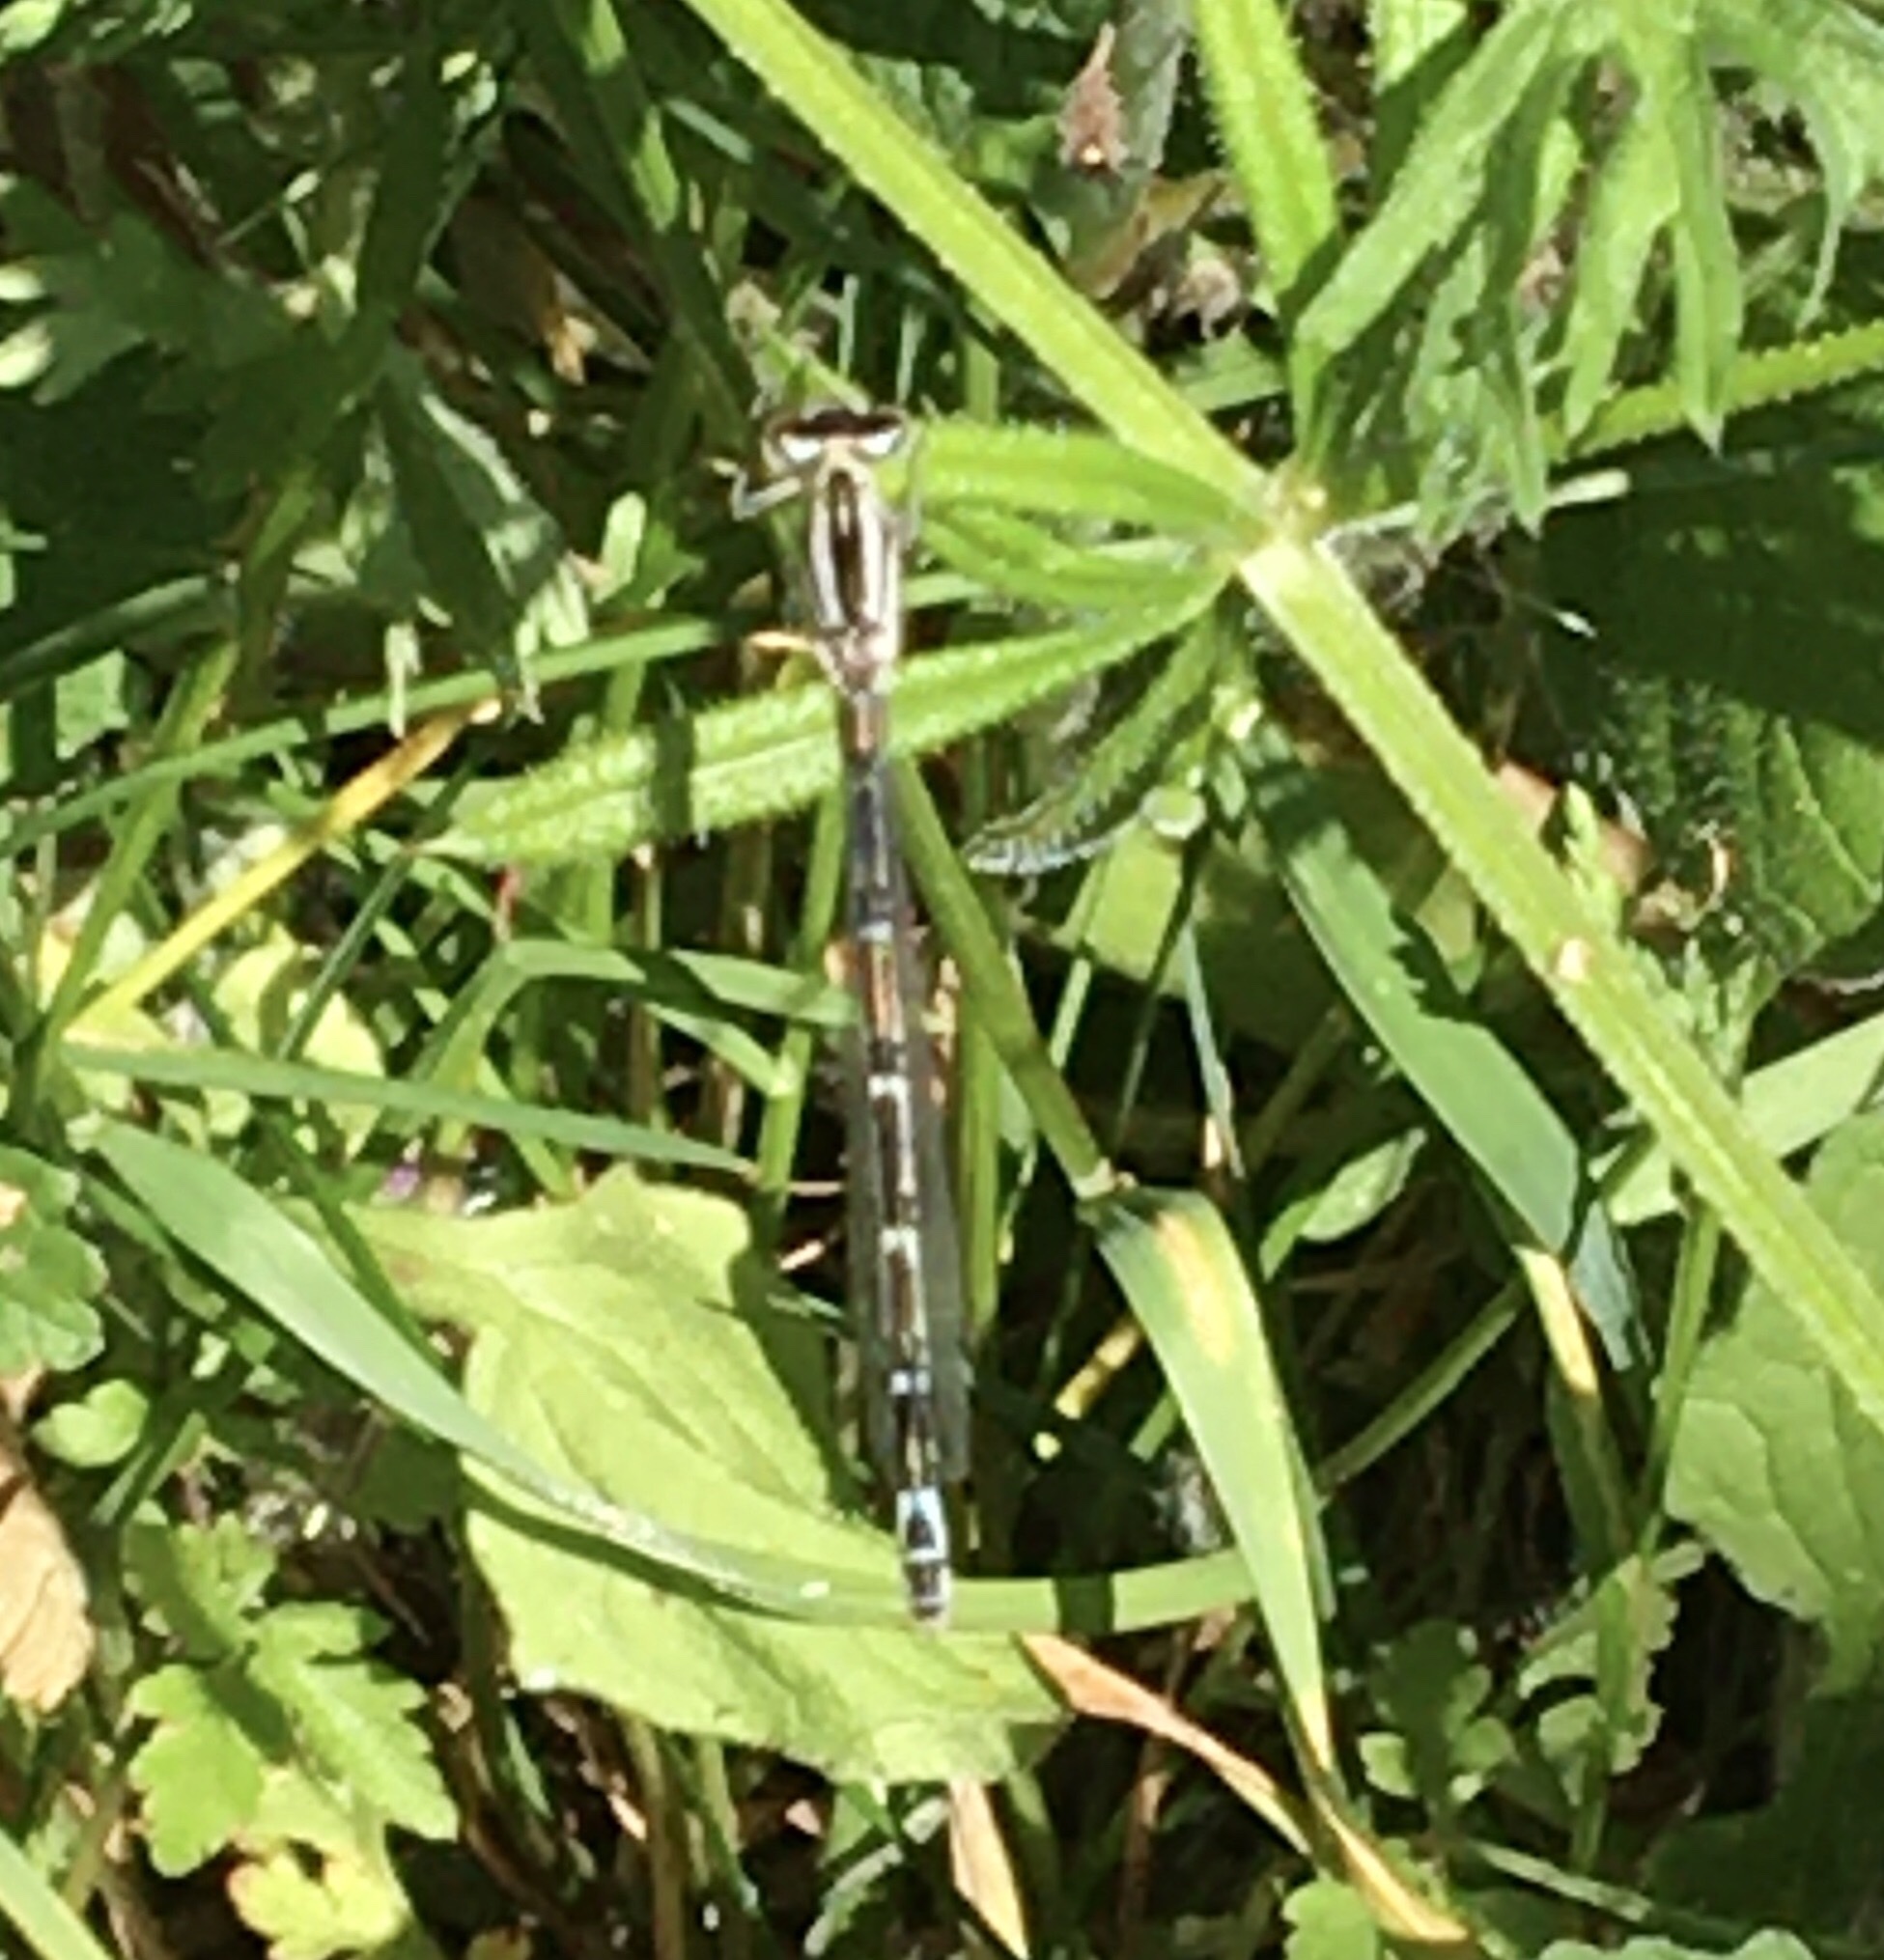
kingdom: Animalia
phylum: Arthropoda
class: Insecta
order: Odonata
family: Coenagrionidae
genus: Enallagma
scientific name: Enallagma cyathigerum
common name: Common blue damselfly
